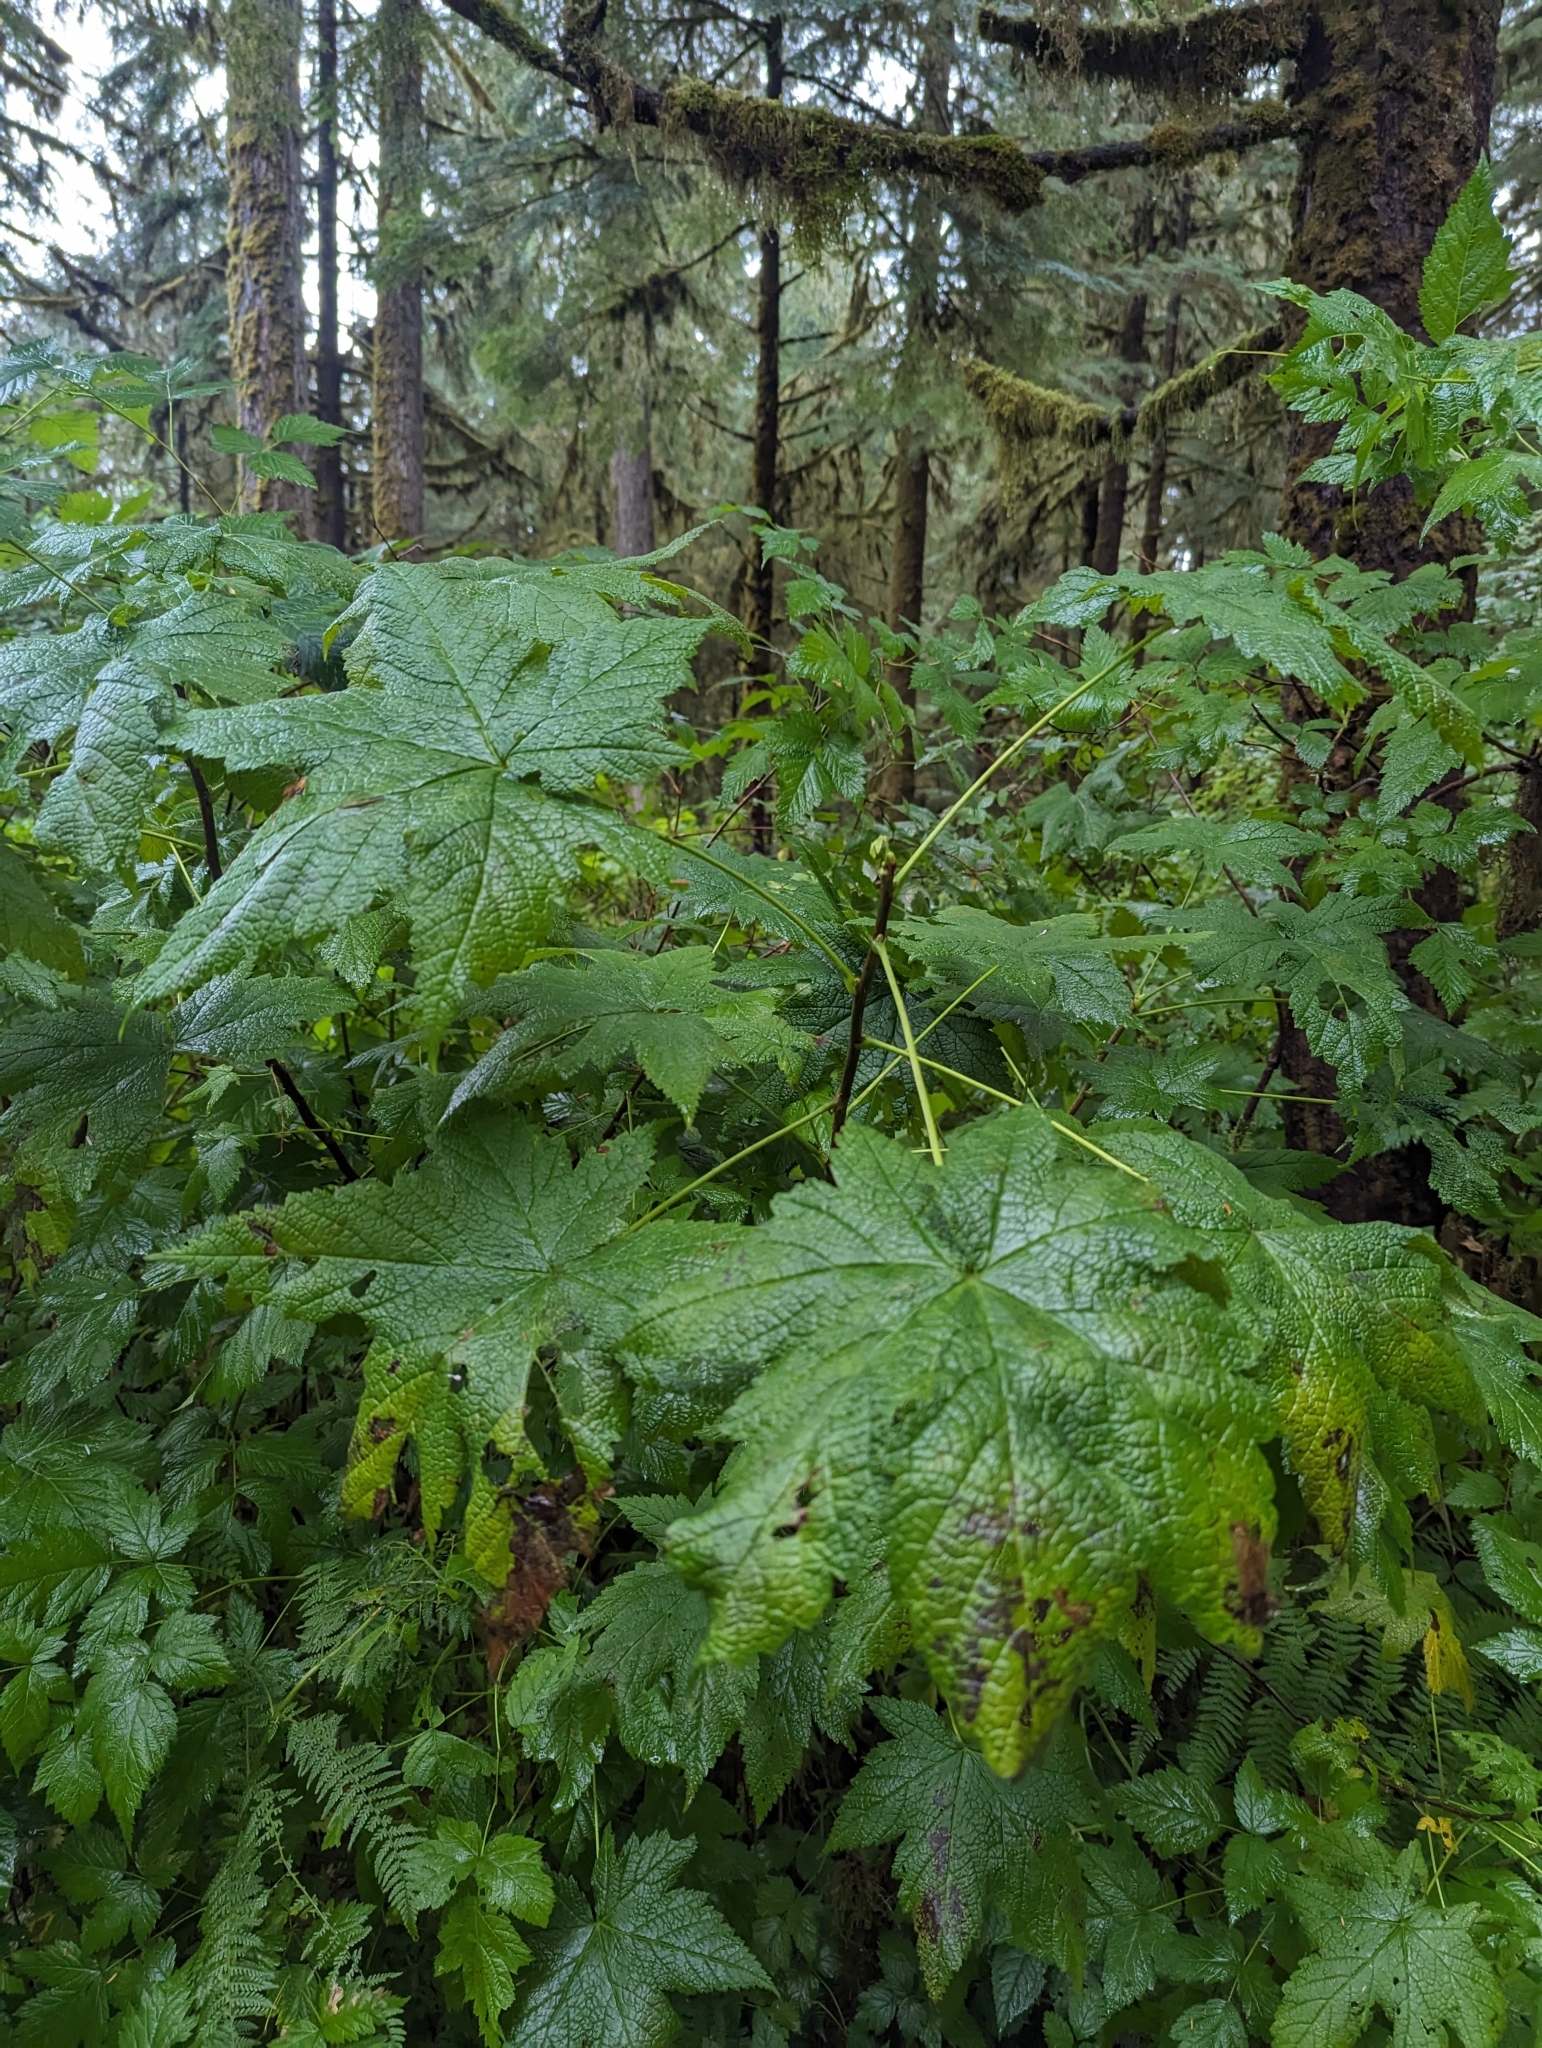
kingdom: Plantae
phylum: Tracheophyta
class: Magnoliopsida
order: Saxifragales
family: Grossulariaceae
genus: Ribes
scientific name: Ribes bracteosum
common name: California black currant
